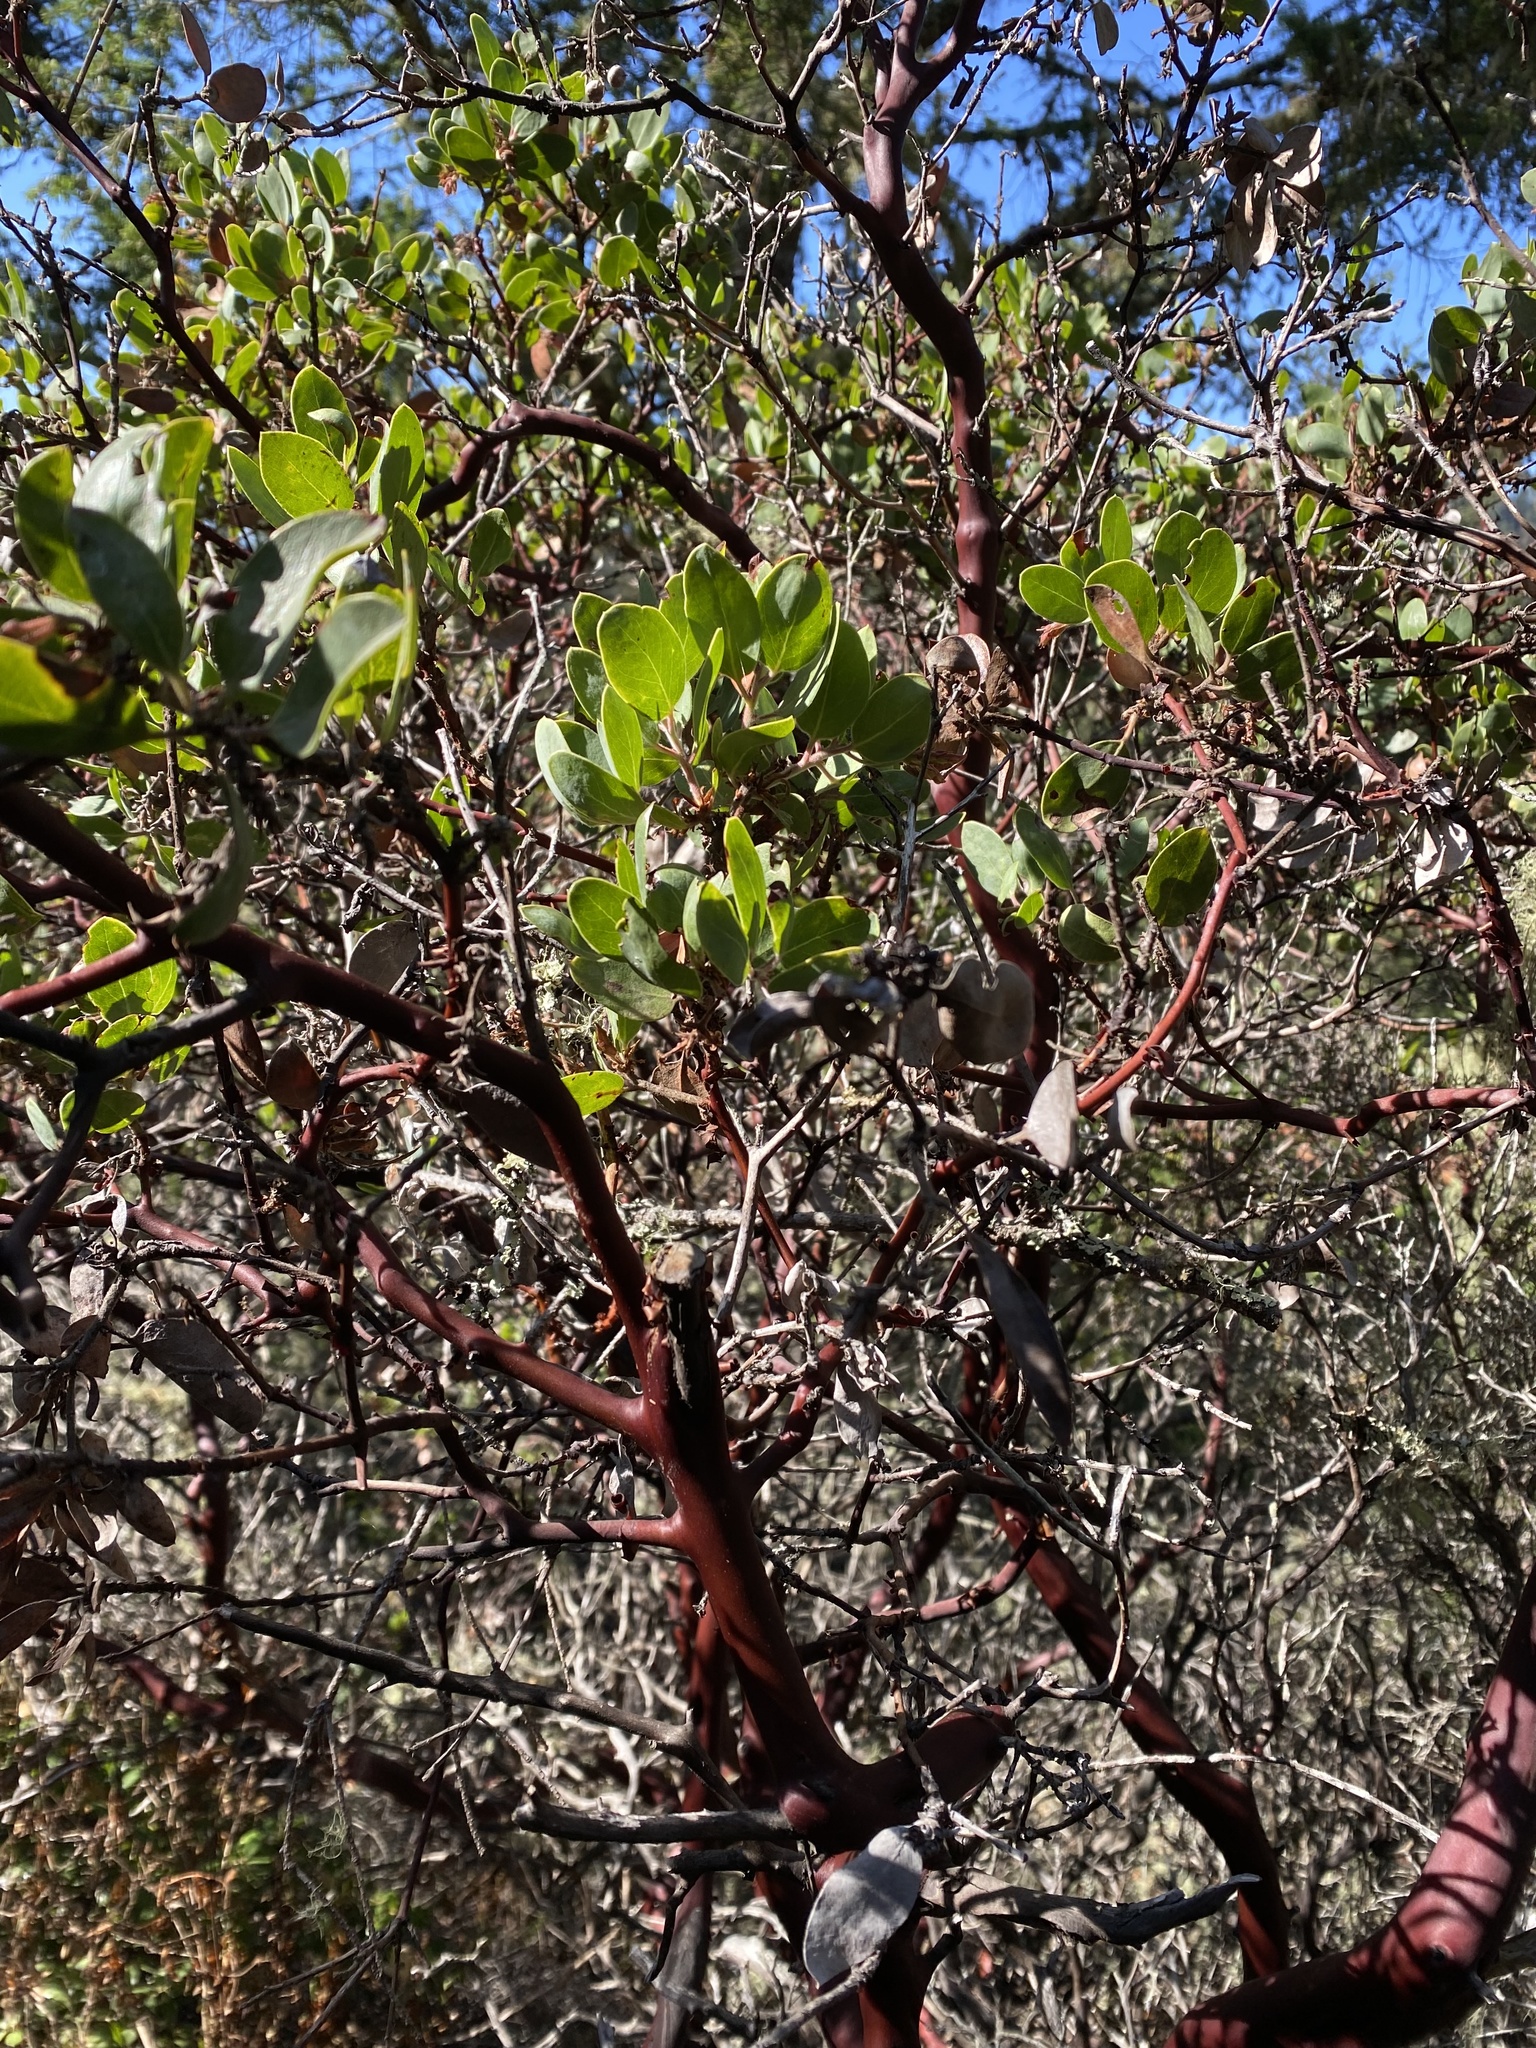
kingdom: Plantae
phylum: Tracheophyta
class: Magnoliopsida
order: Ericales
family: Ericaceae
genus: Arctostaphylos
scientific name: Arctostaphylos glandulosa
